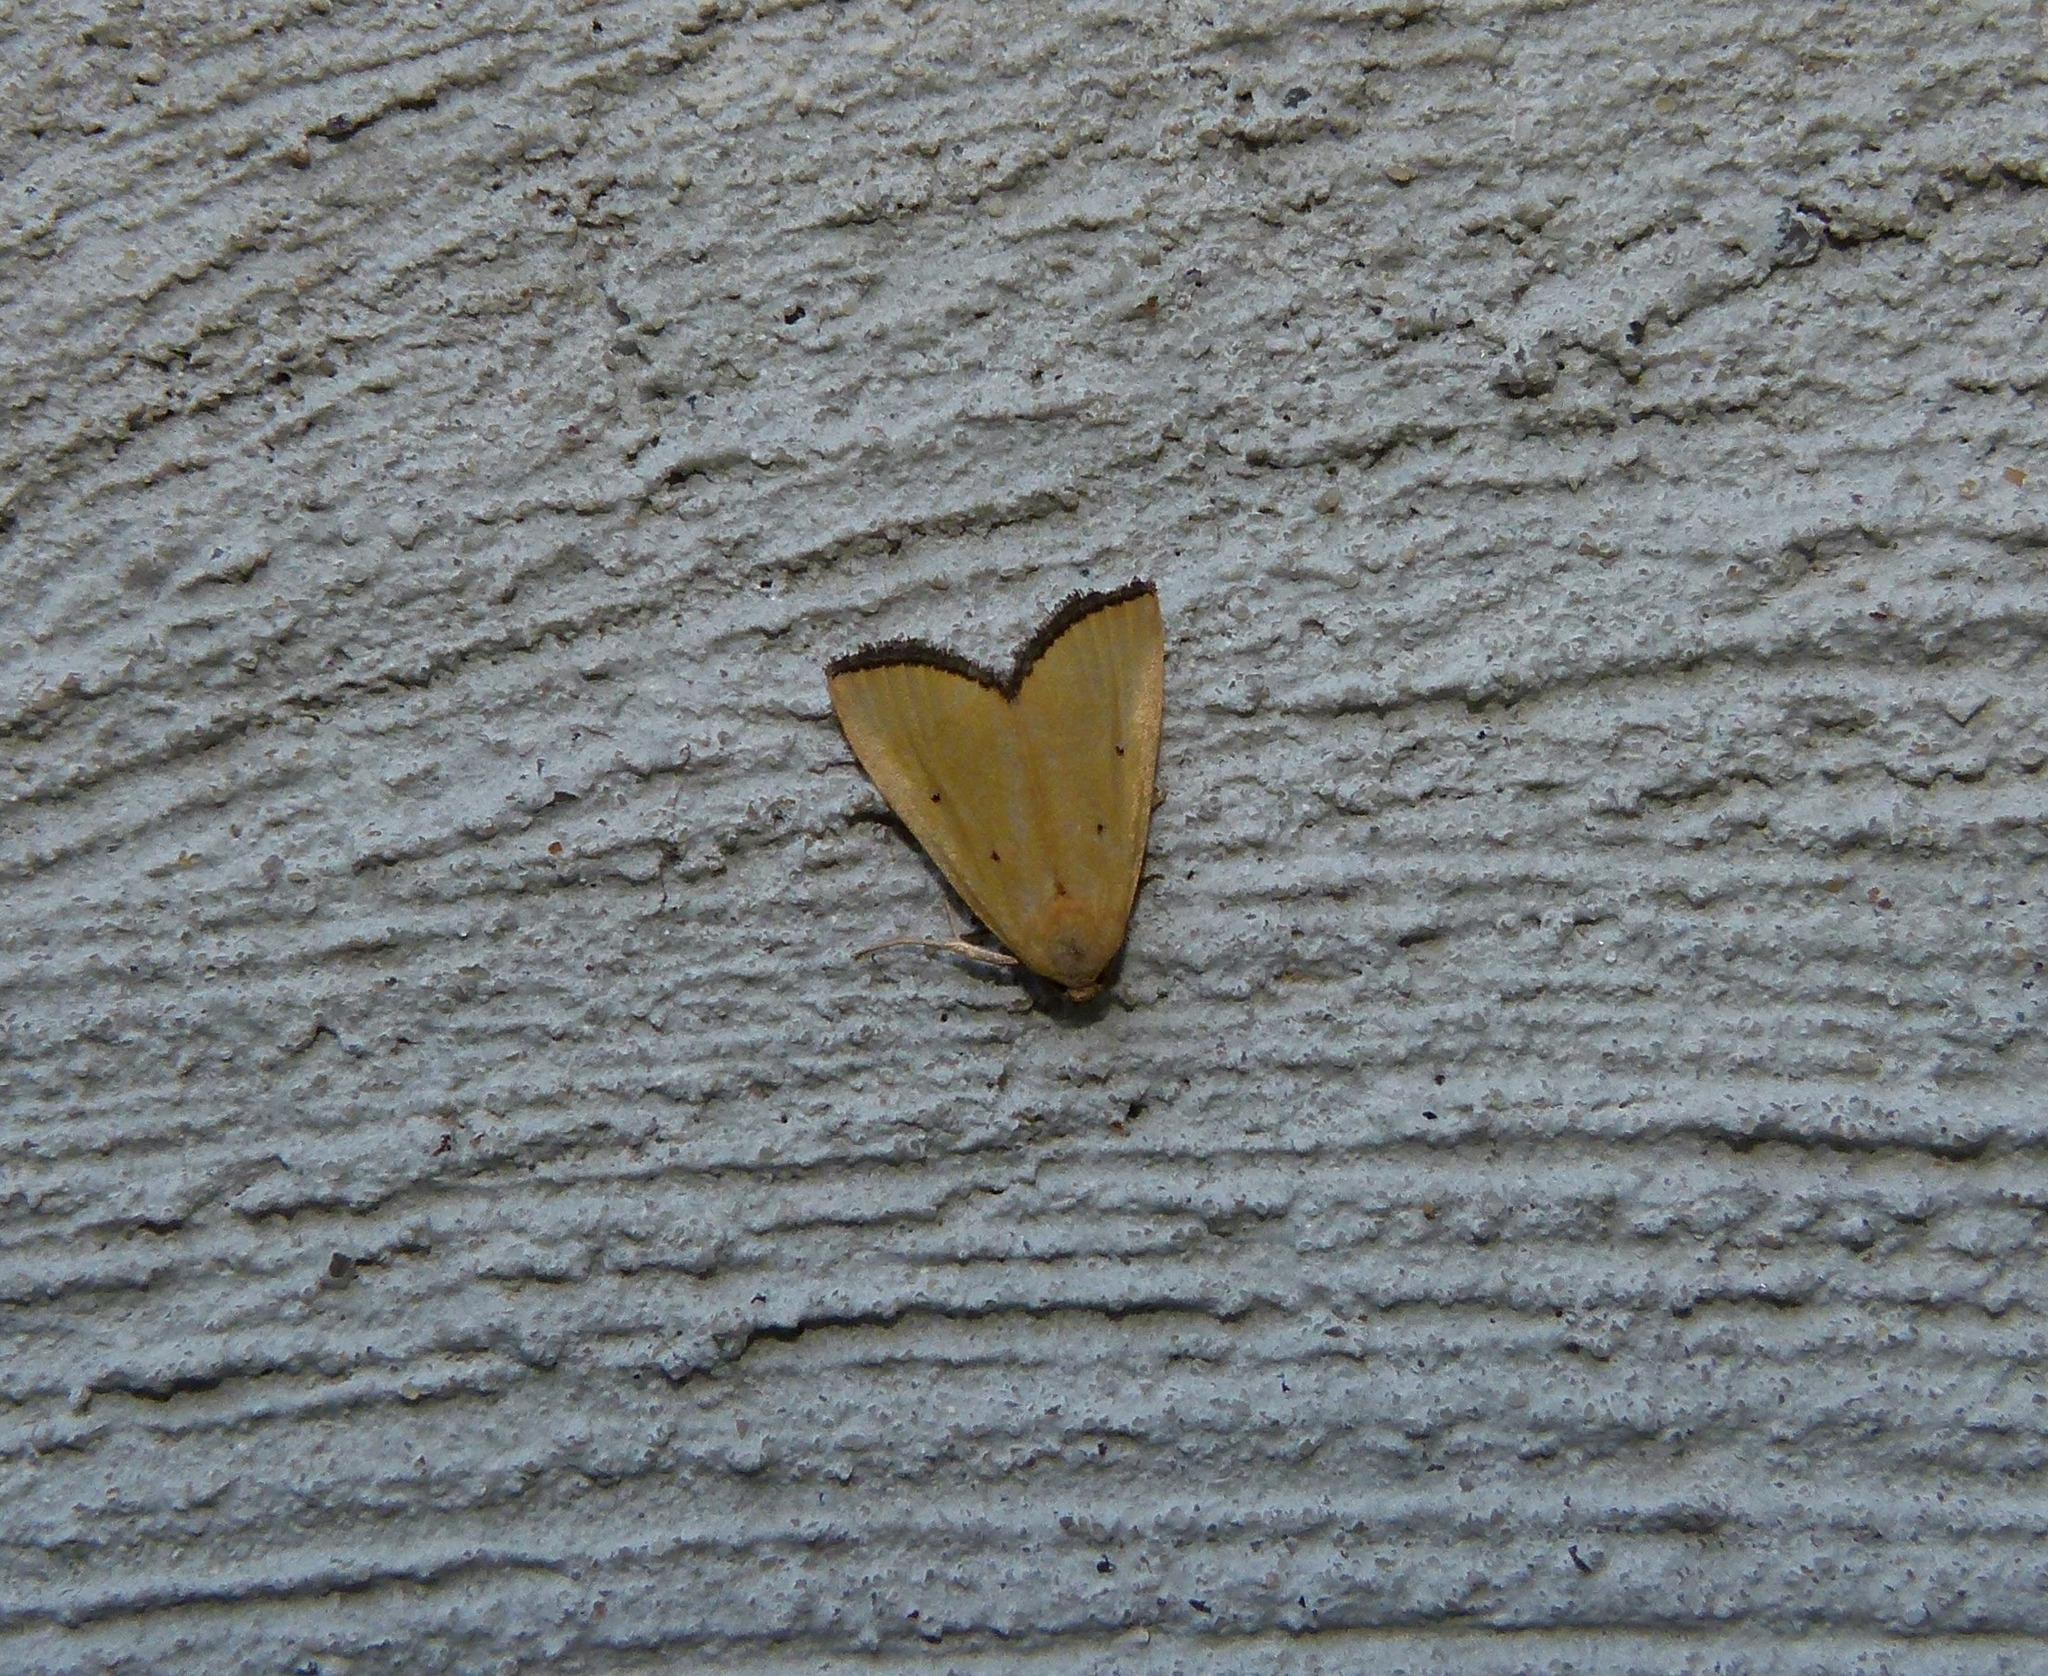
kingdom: Animalia
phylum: Arthropoda
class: Insecta
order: Lepidoptera
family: Noctuidae
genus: Marimatha
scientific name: Marimatha nigrofimbria
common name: Black-bordered lemon moth
